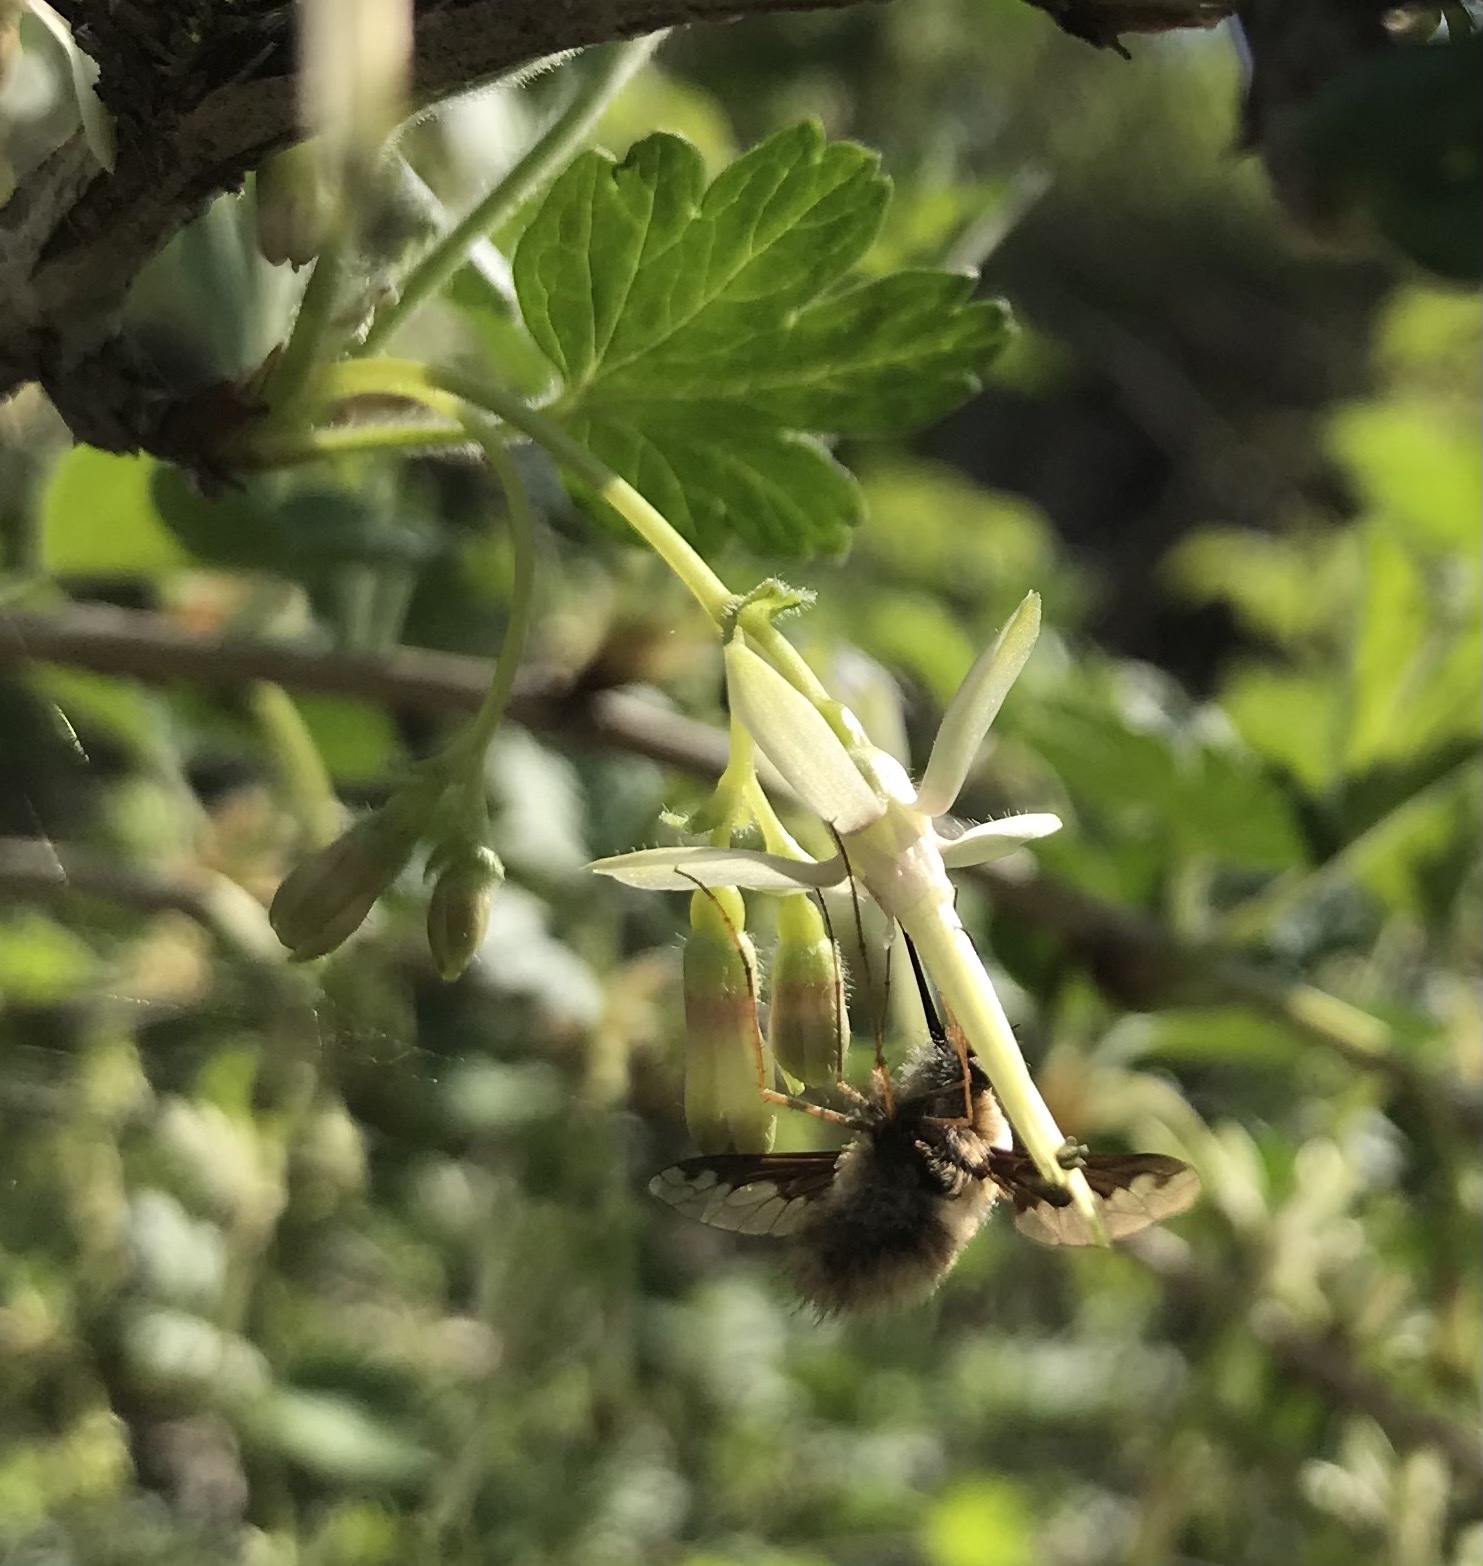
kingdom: Animalia
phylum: Arthropoda
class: Insecta
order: Diptera
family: Bombyliidae
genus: Bombylius
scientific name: Bombylius major
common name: Bee fly
